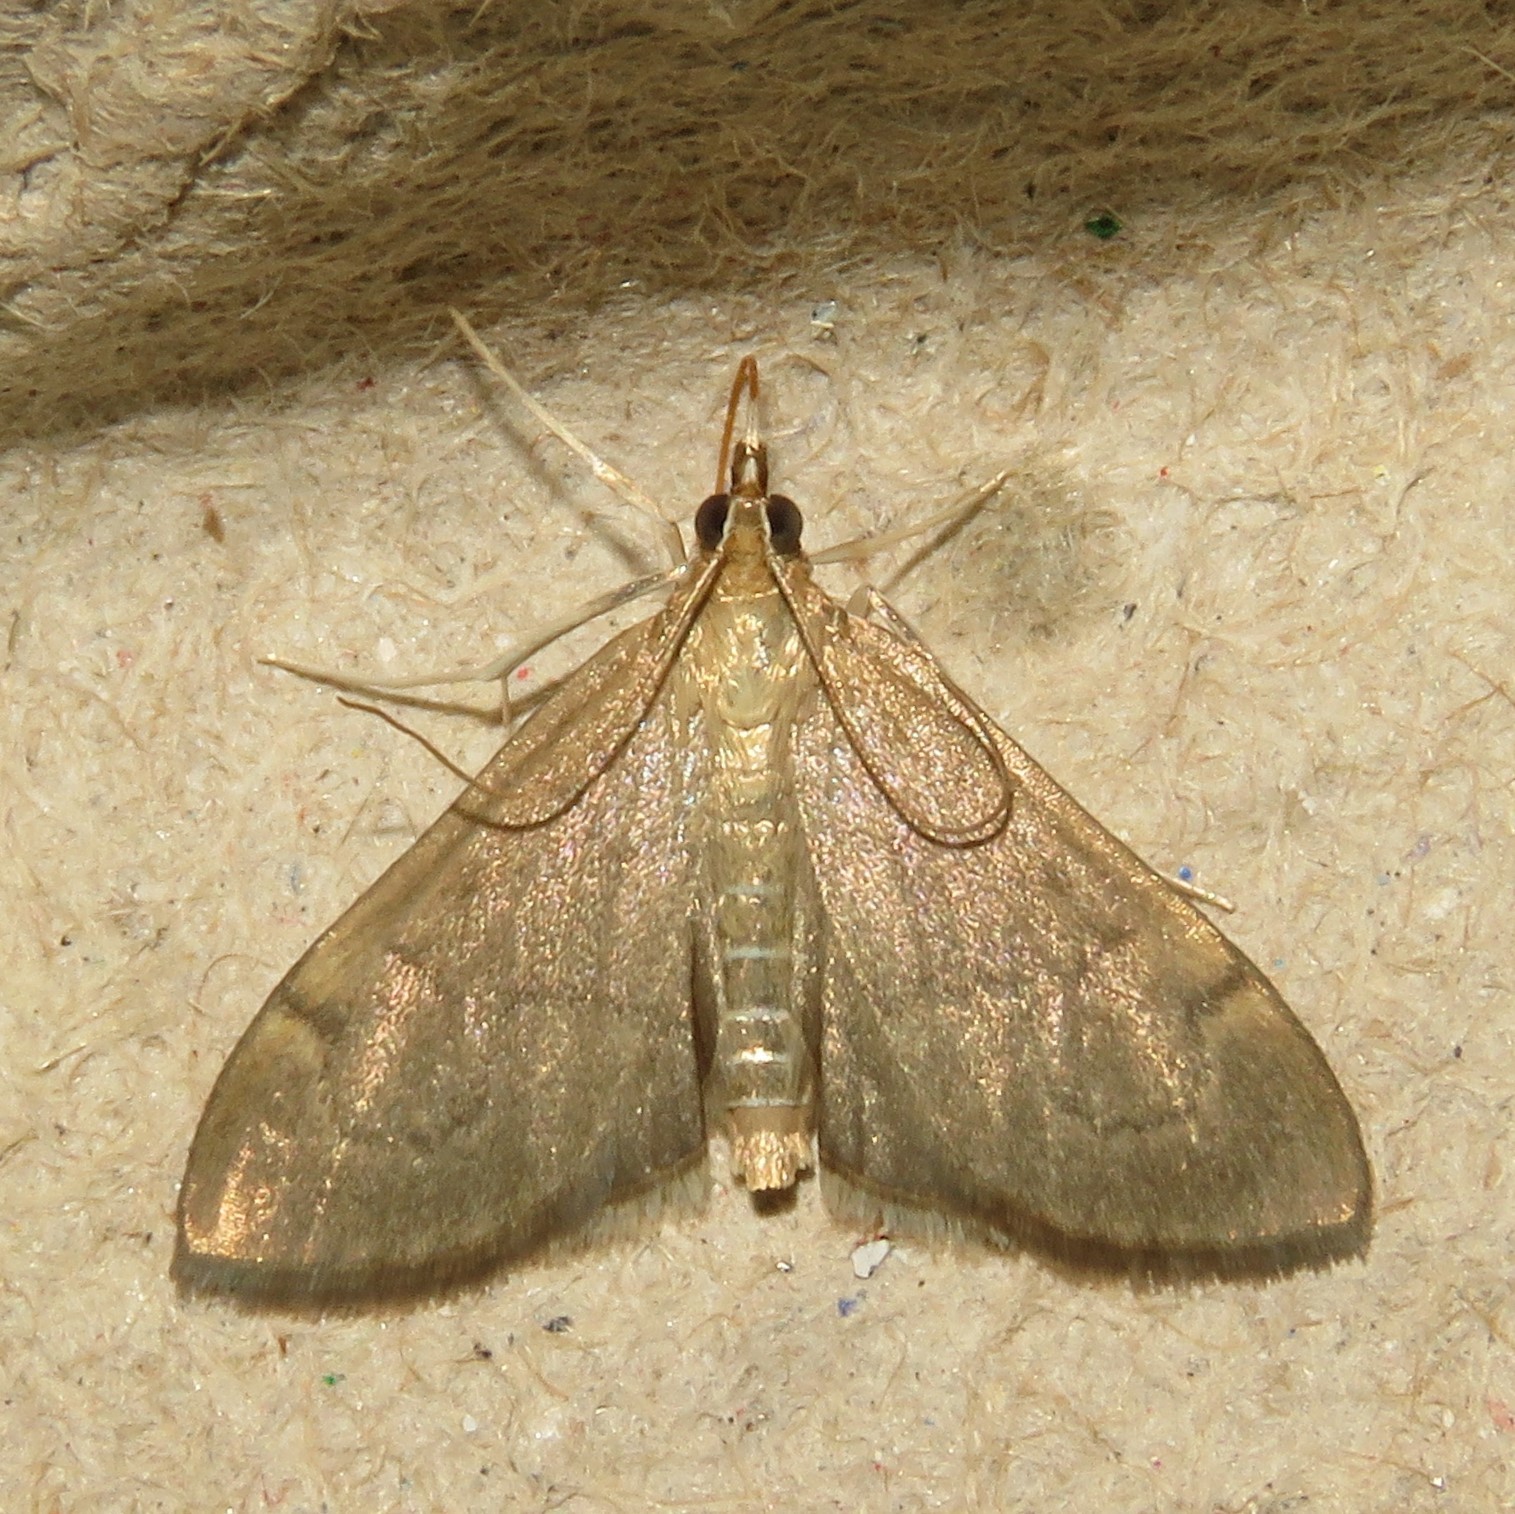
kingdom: Animalia
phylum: Arthropoda
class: Insecta
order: Lepidoptera
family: Crambidae
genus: Anania
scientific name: Anania mysippusalis
